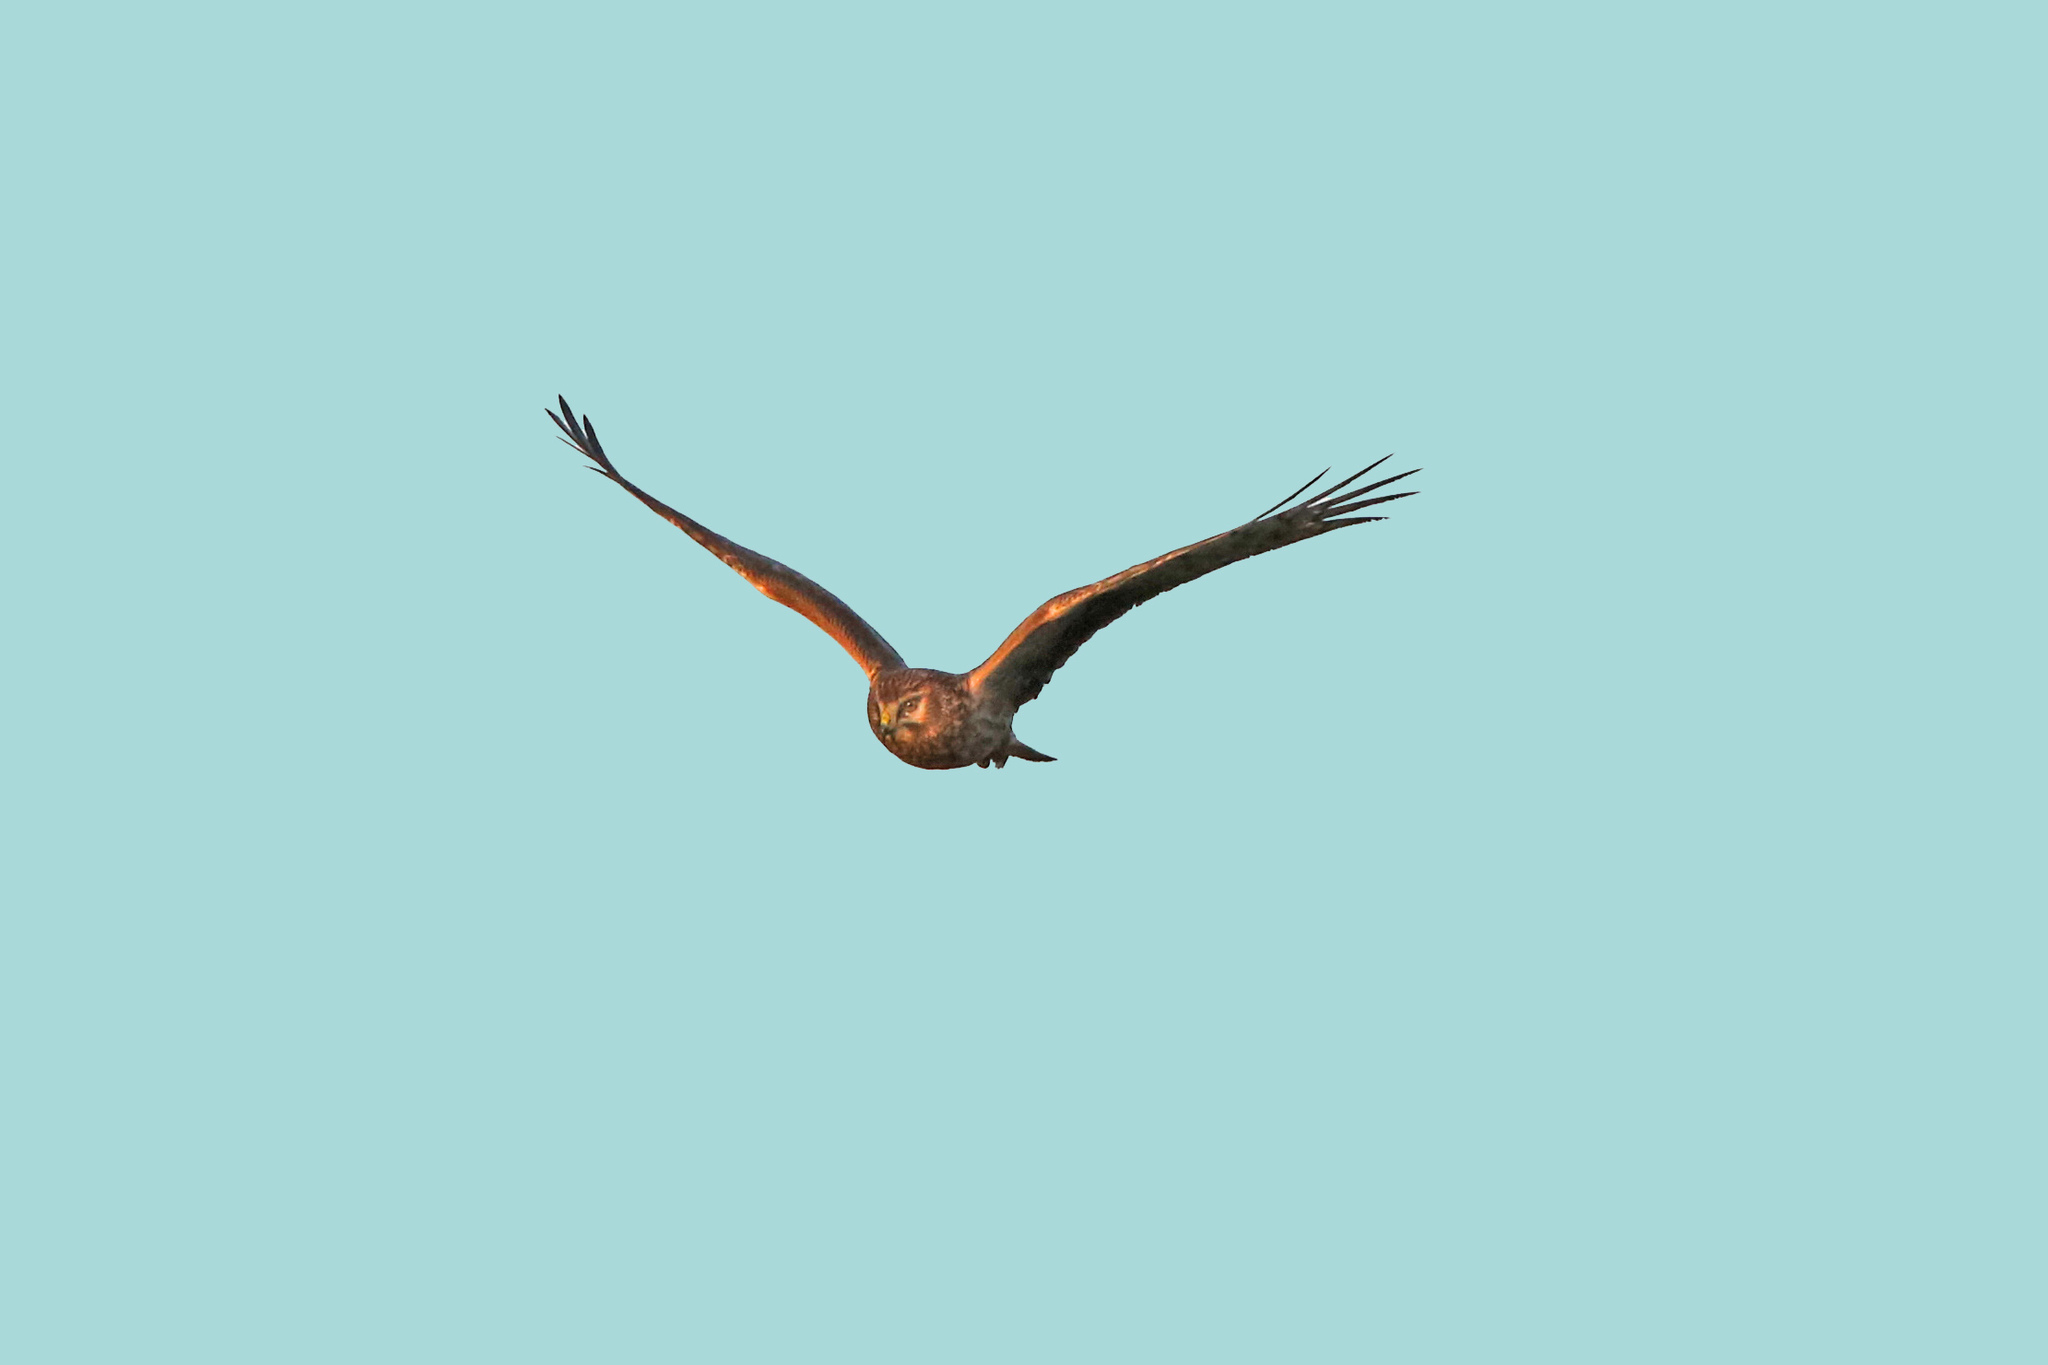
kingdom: Animalia
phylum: Chordata
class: Aves
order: Accipitriformes
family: Accipitridae
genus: Circus
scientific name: Circus cyaneus
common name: Hen harrier
